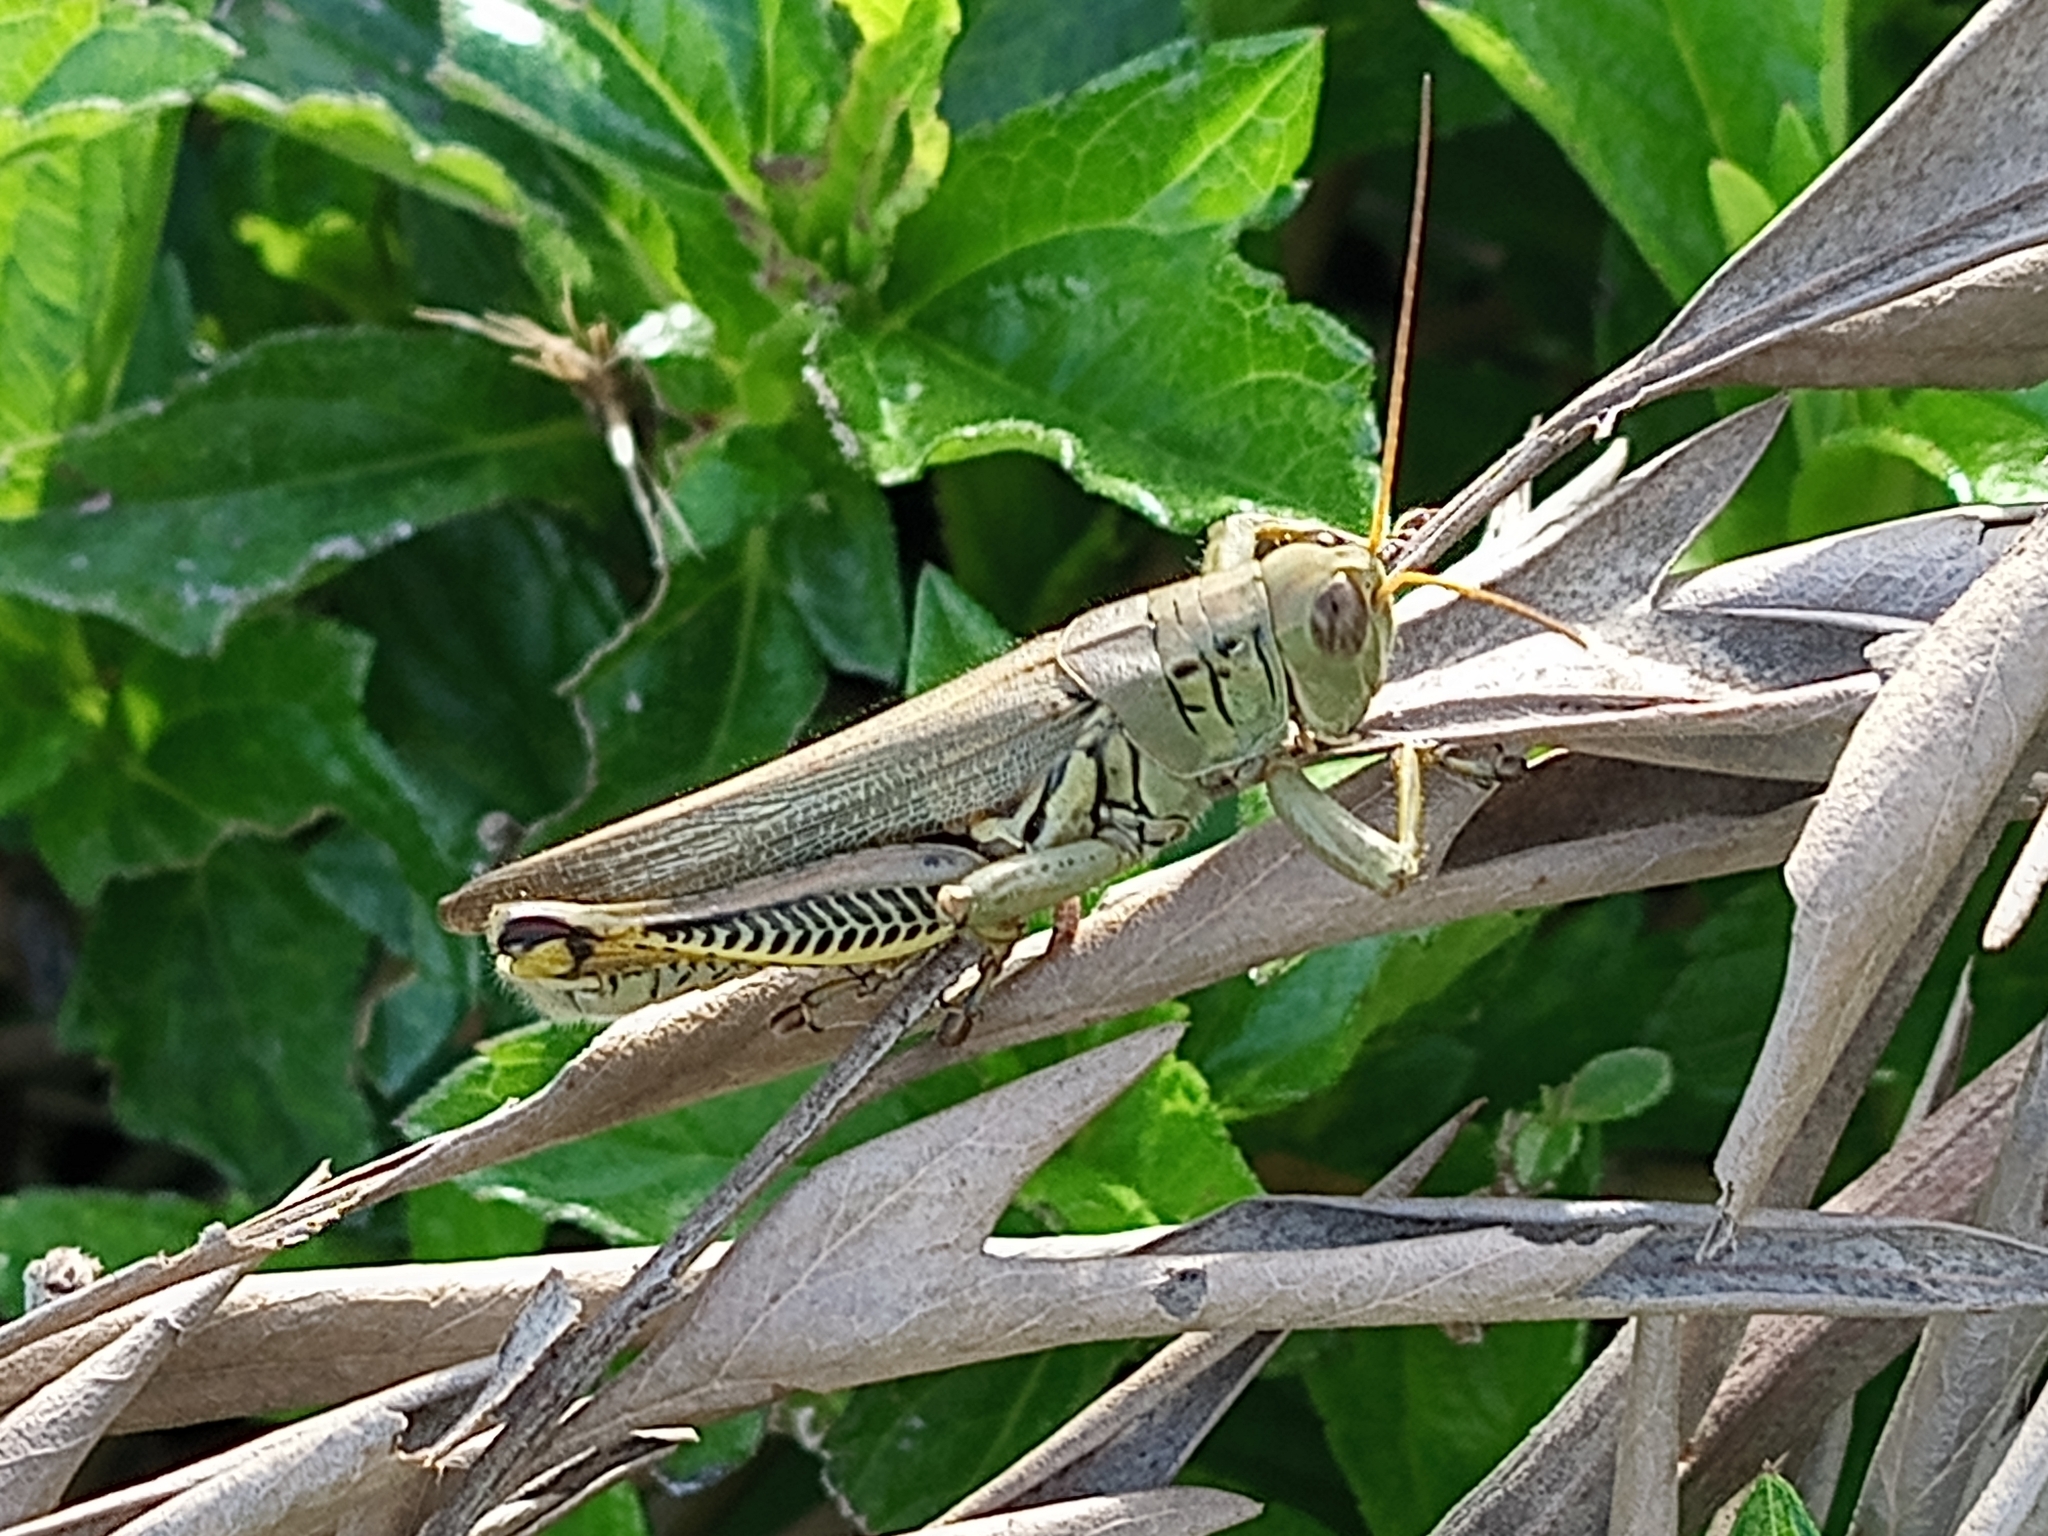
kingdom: Animalia
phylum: Arthropoda
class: Insecta
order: Orthoptera
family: Acrididae
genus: Melanoplus
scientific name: Melanoplus differentialis
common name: Differential grasshopper
